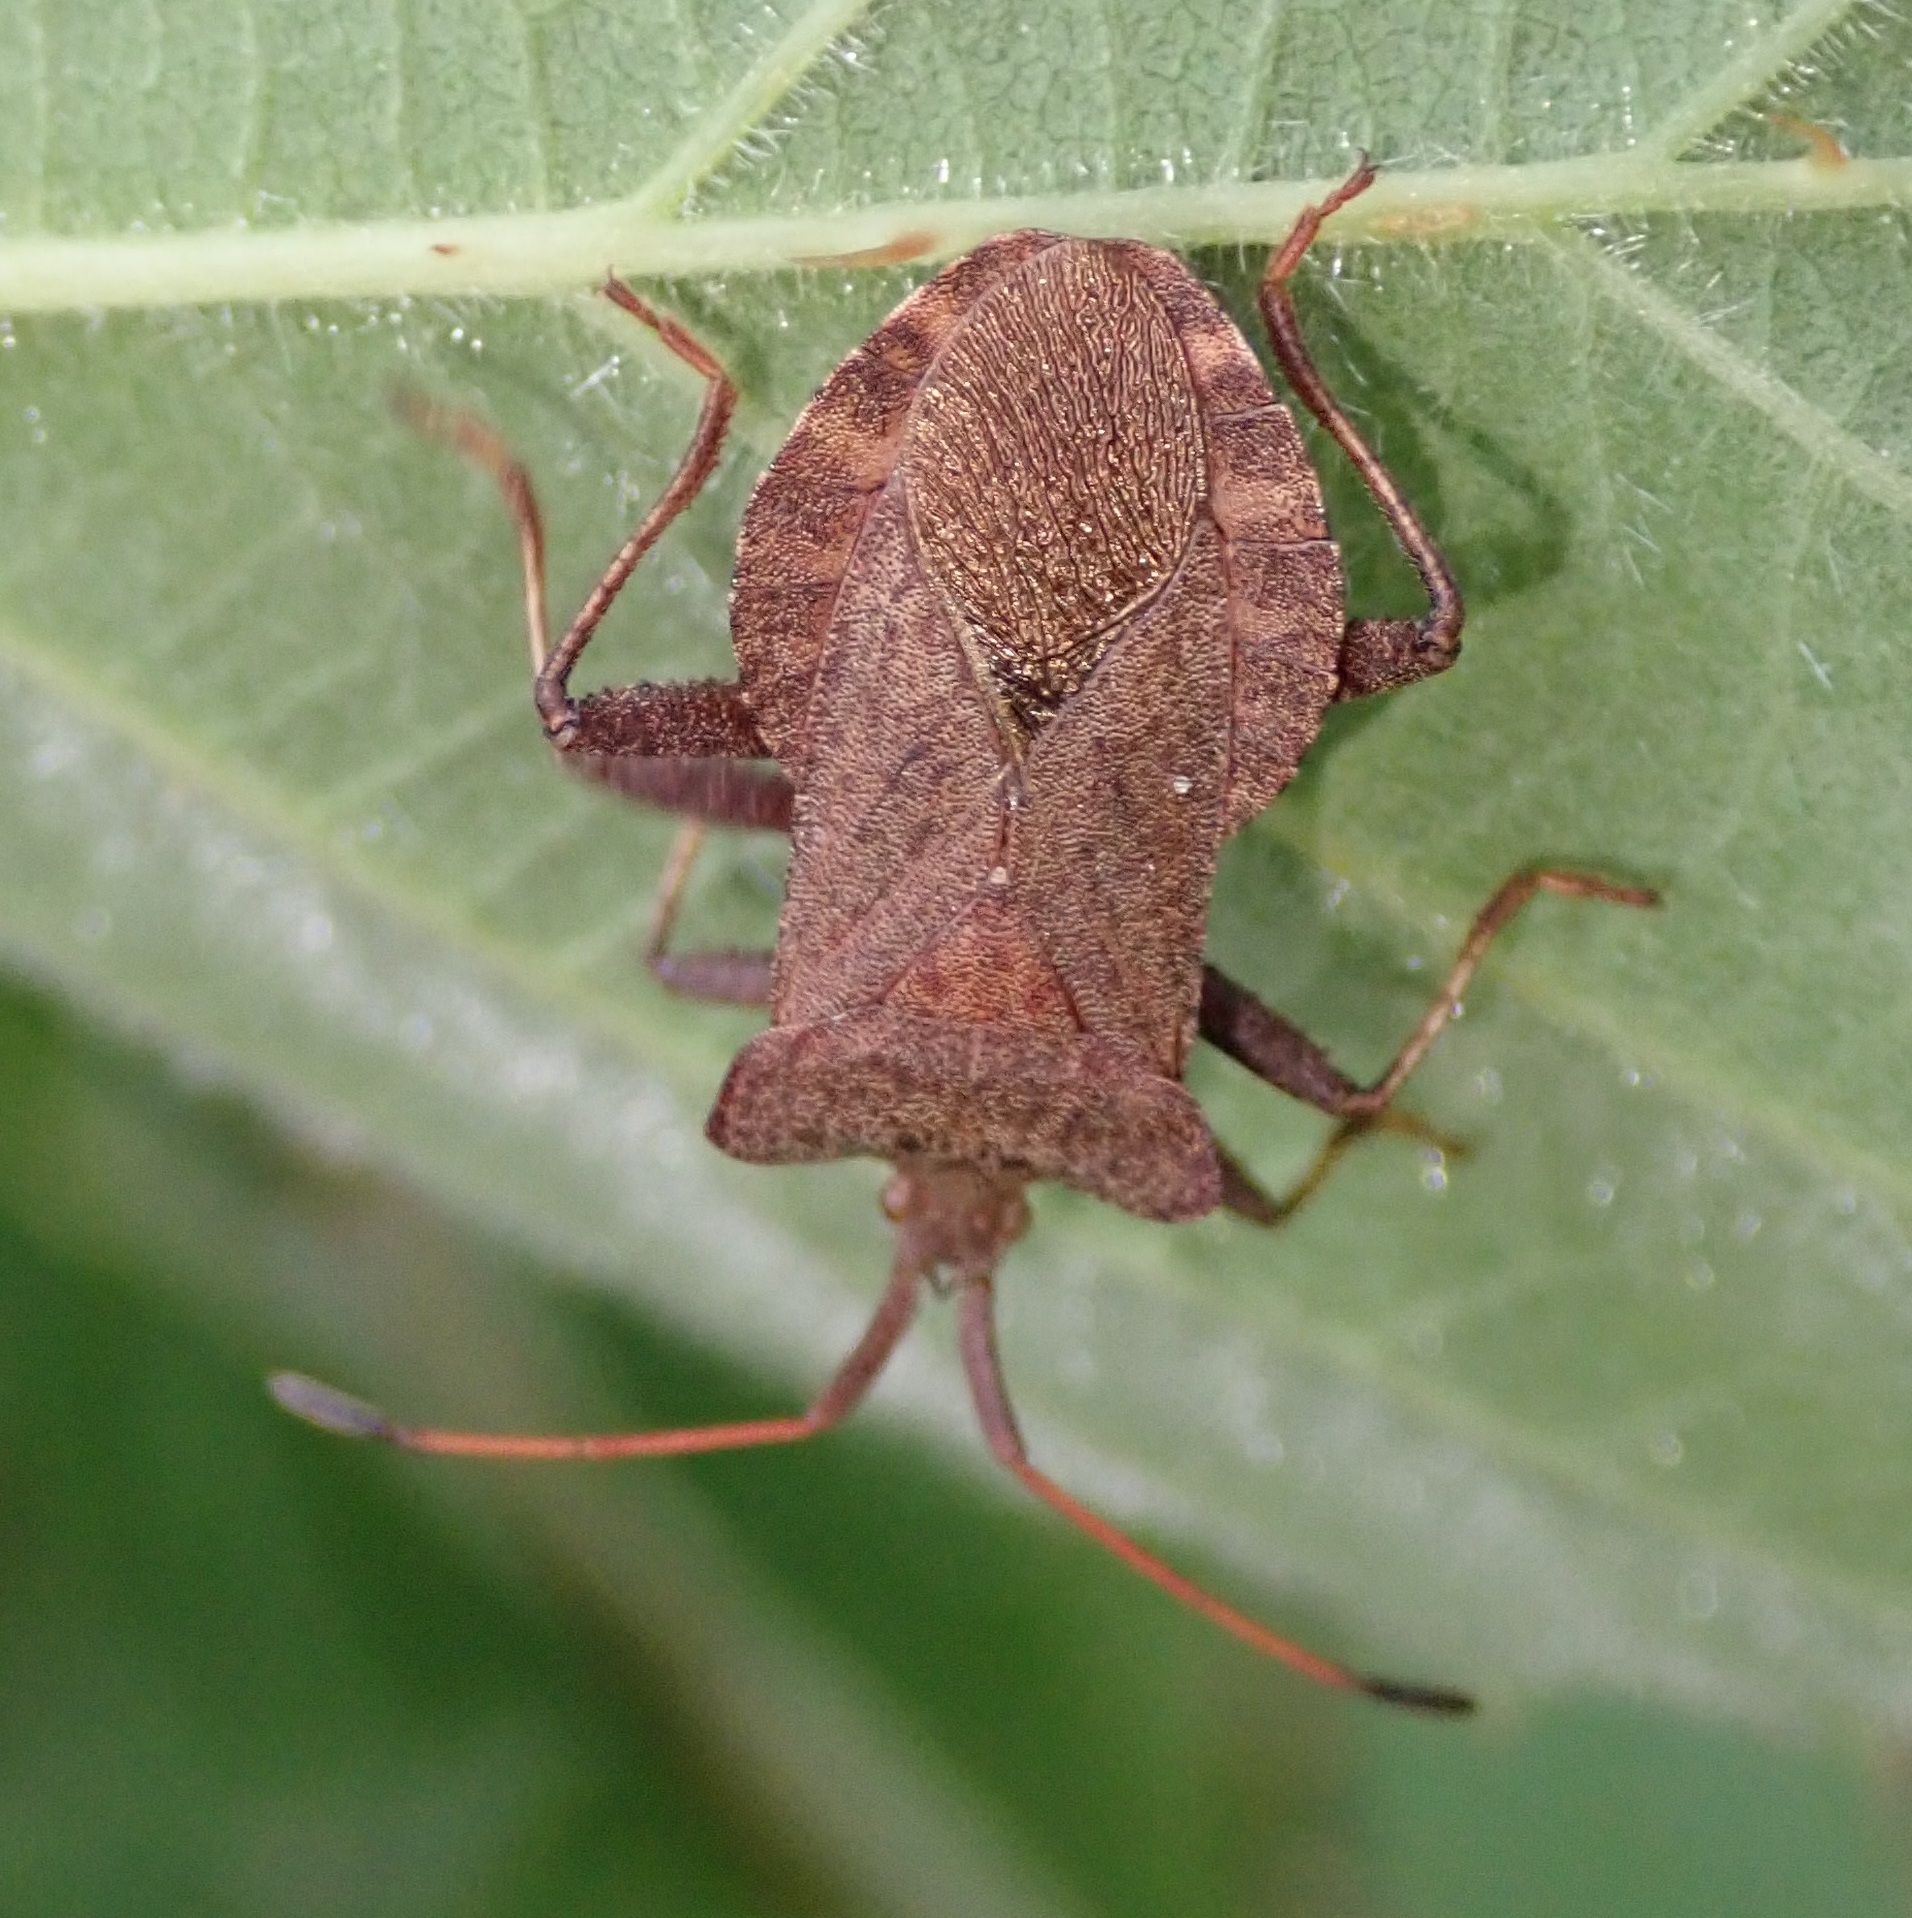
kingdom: Animalia
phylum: Arthropoda
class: Insecta
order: Hemiptera
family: Coreidae
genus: Coreus
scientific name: Coreus marginatus
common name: Dock bug
